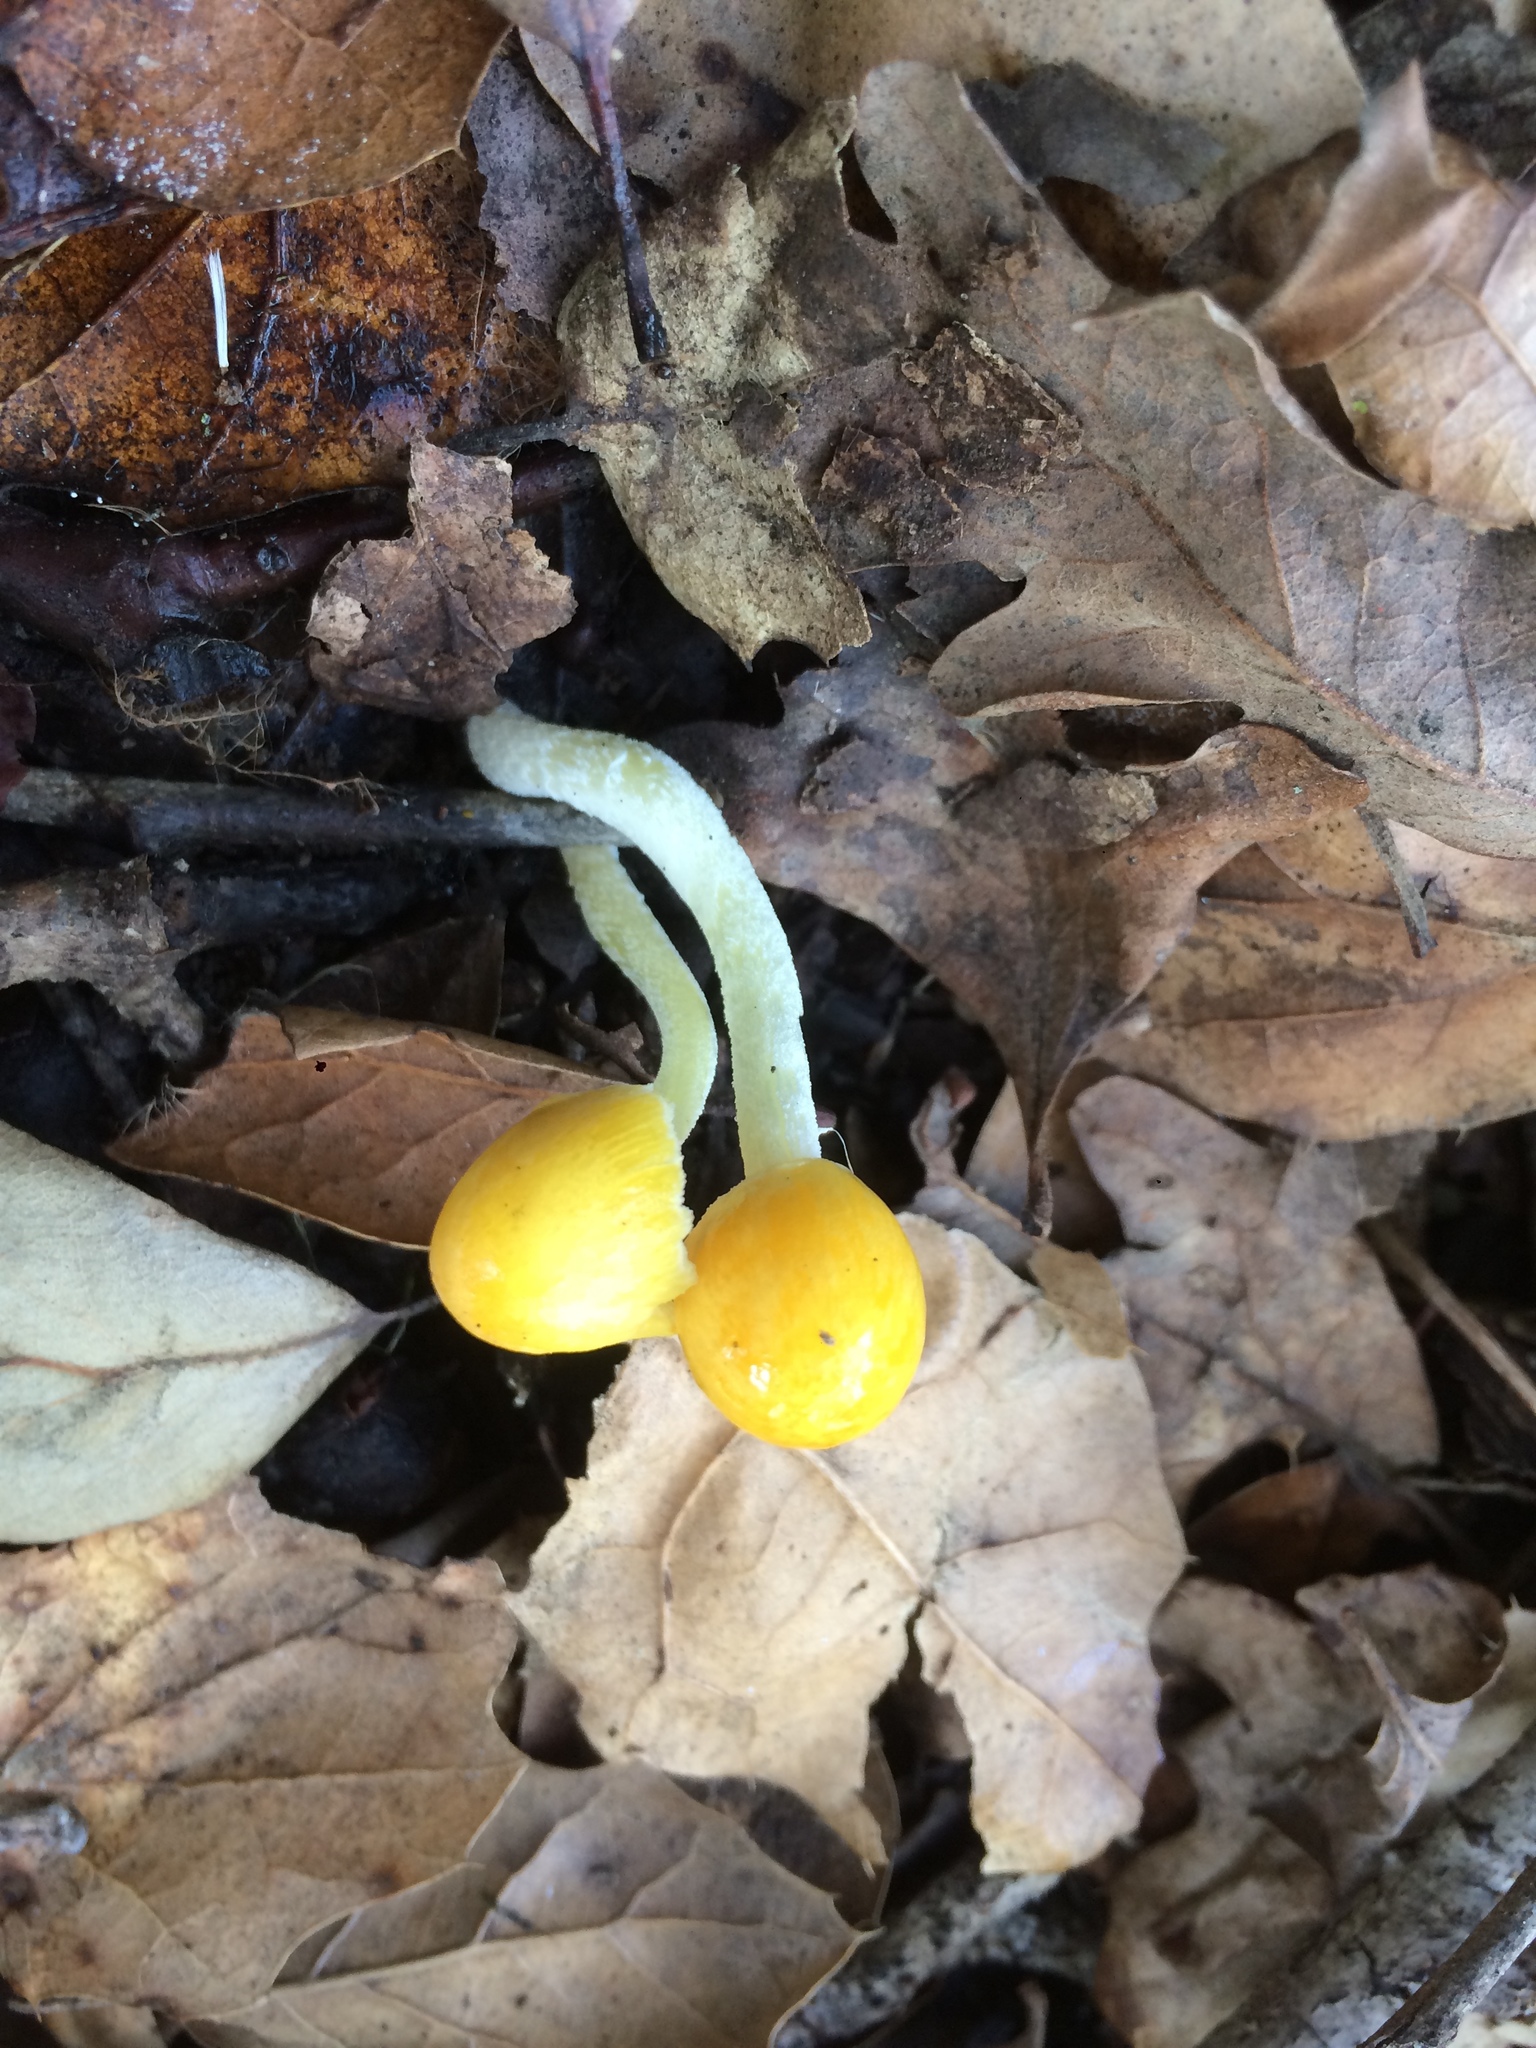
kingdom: Fungi
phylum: Basidiomycota
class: Agaricomycetes
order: Agaricales
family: Bolbitiaceae
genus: Bolbitius
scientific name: Bolbitius titubans
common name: Yellow fieldcap
